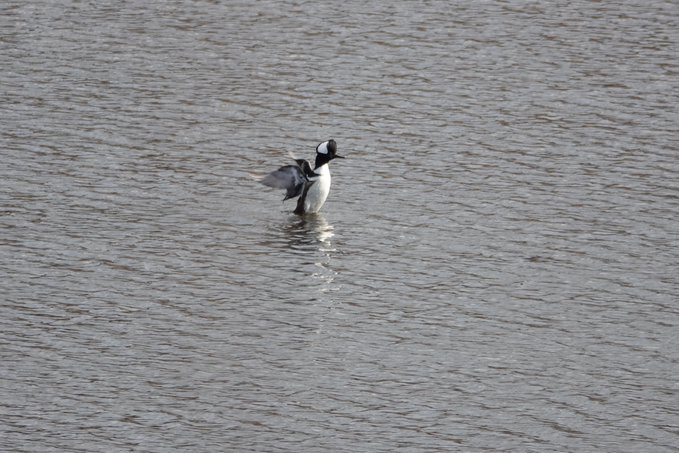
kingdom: Animalia
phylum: Chordata
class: Aves
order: Anseriformes
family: Anatidae
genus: Lophodytes
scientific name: Lophodytes cucullatus
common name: Hooded merganser
